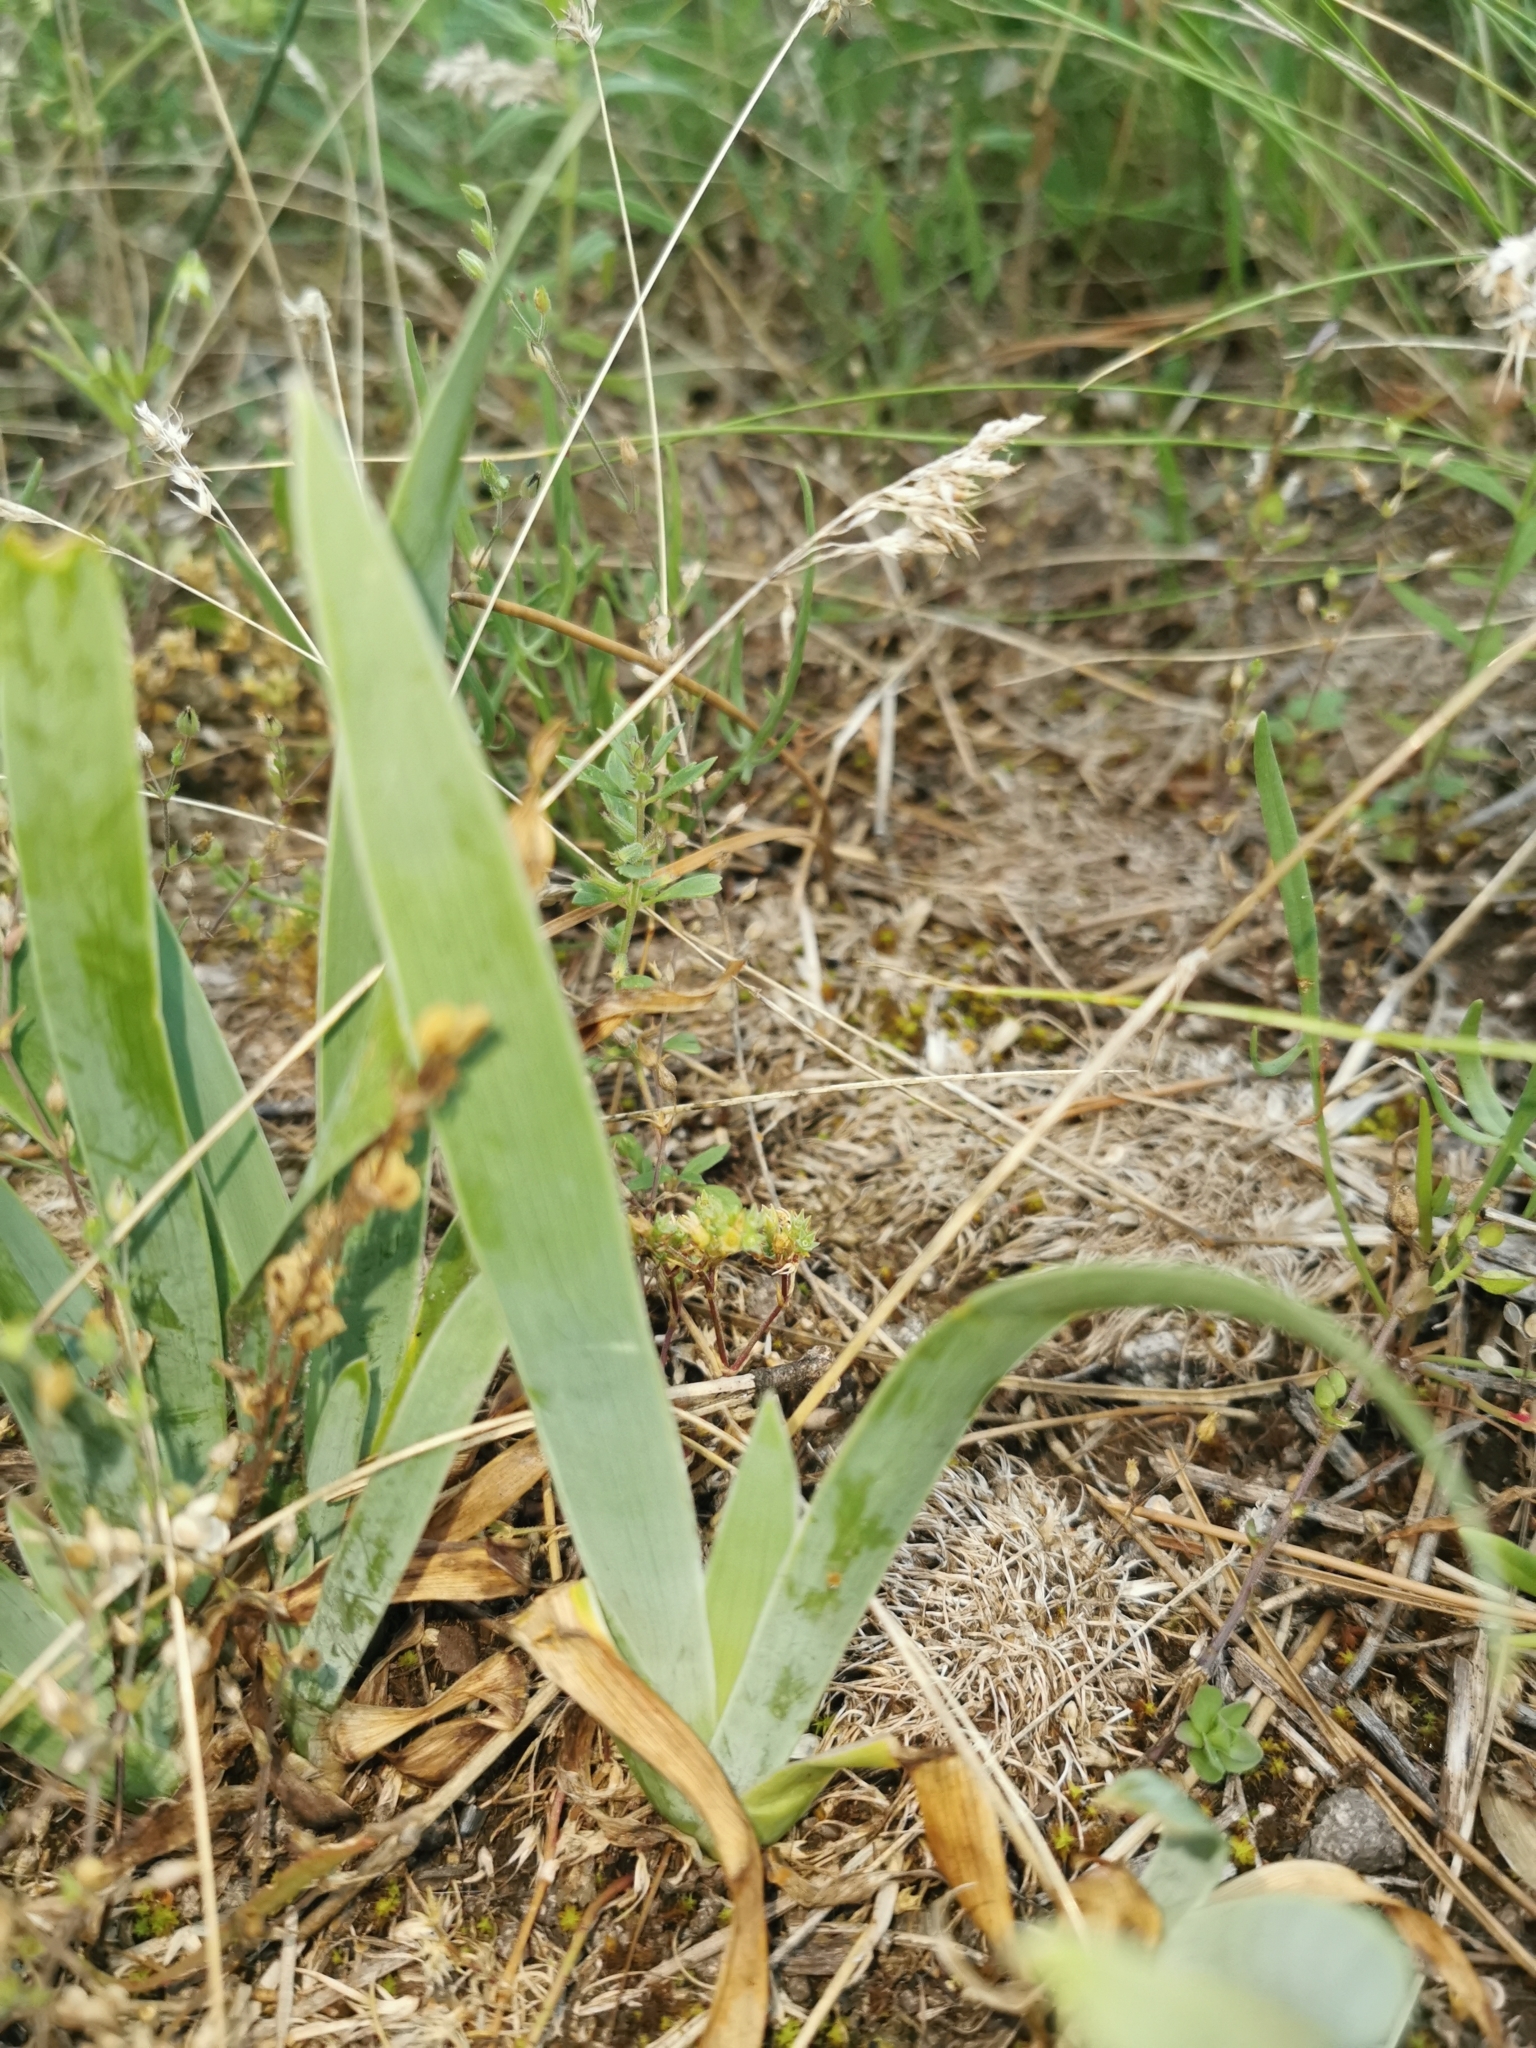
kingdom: Plantae
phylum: Tracheophyta
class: Liliopsida
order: Asparagales
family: Iridaceae
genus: Iris
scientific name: Iris pumila
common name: Dwarf iris
